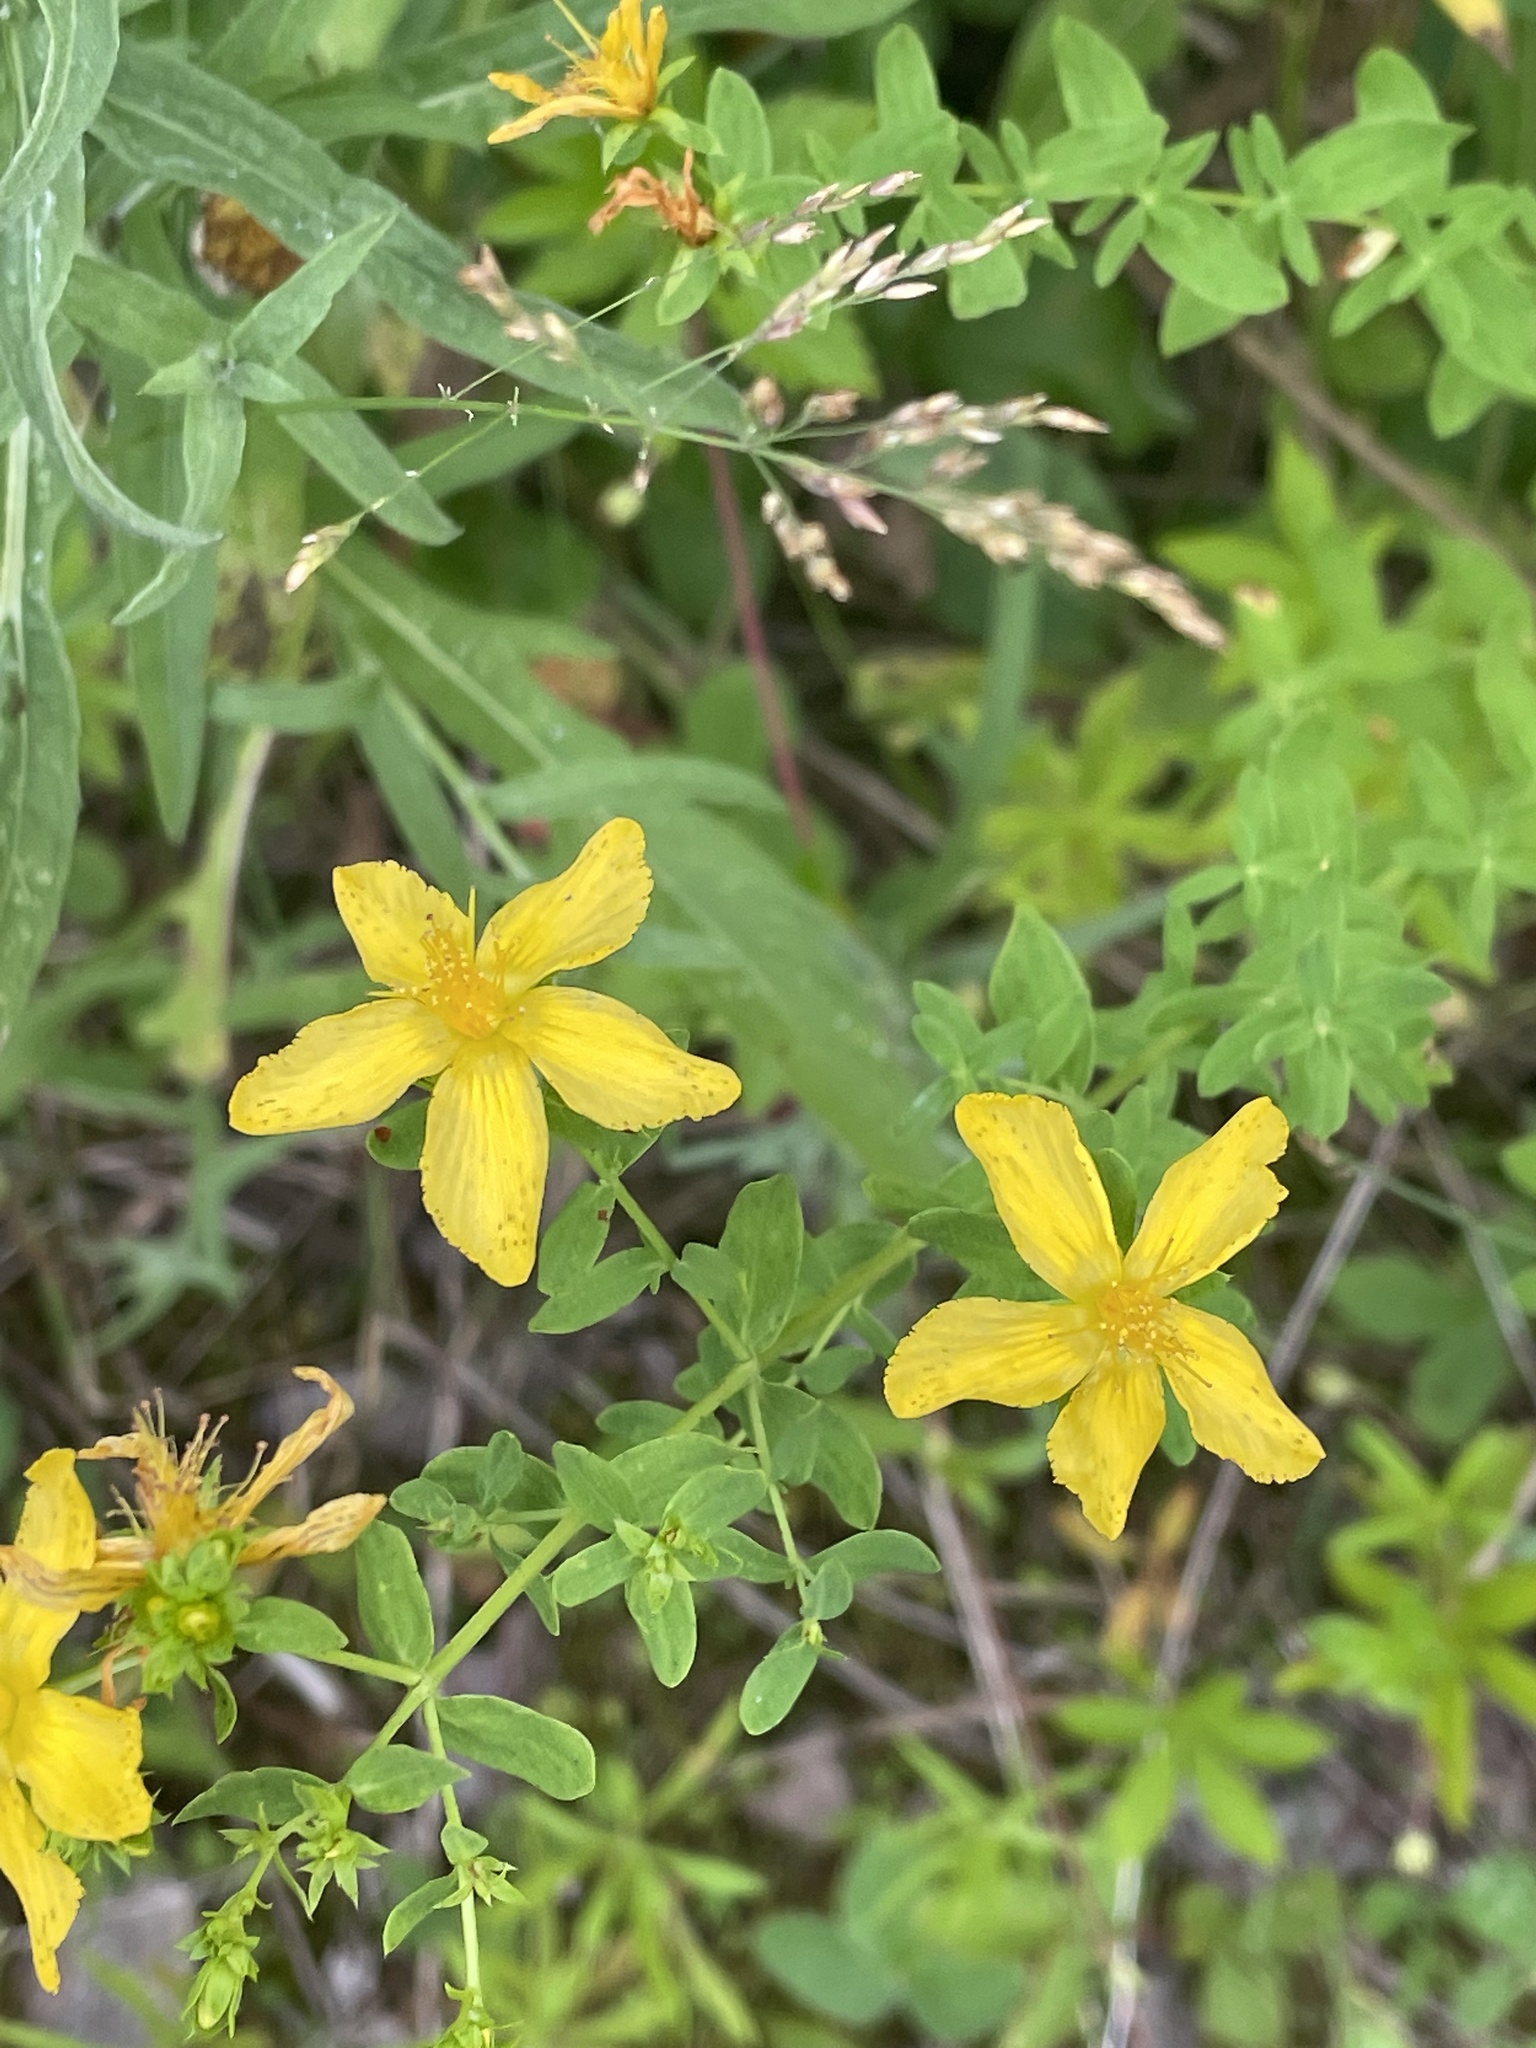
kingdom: Plantae
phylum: Tracheophyta
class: Magnoliopsida
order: Malpighiales
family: Hypericaceae
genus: Hypericum
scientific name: Hypericum perforatum
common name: Common st. johnswort
